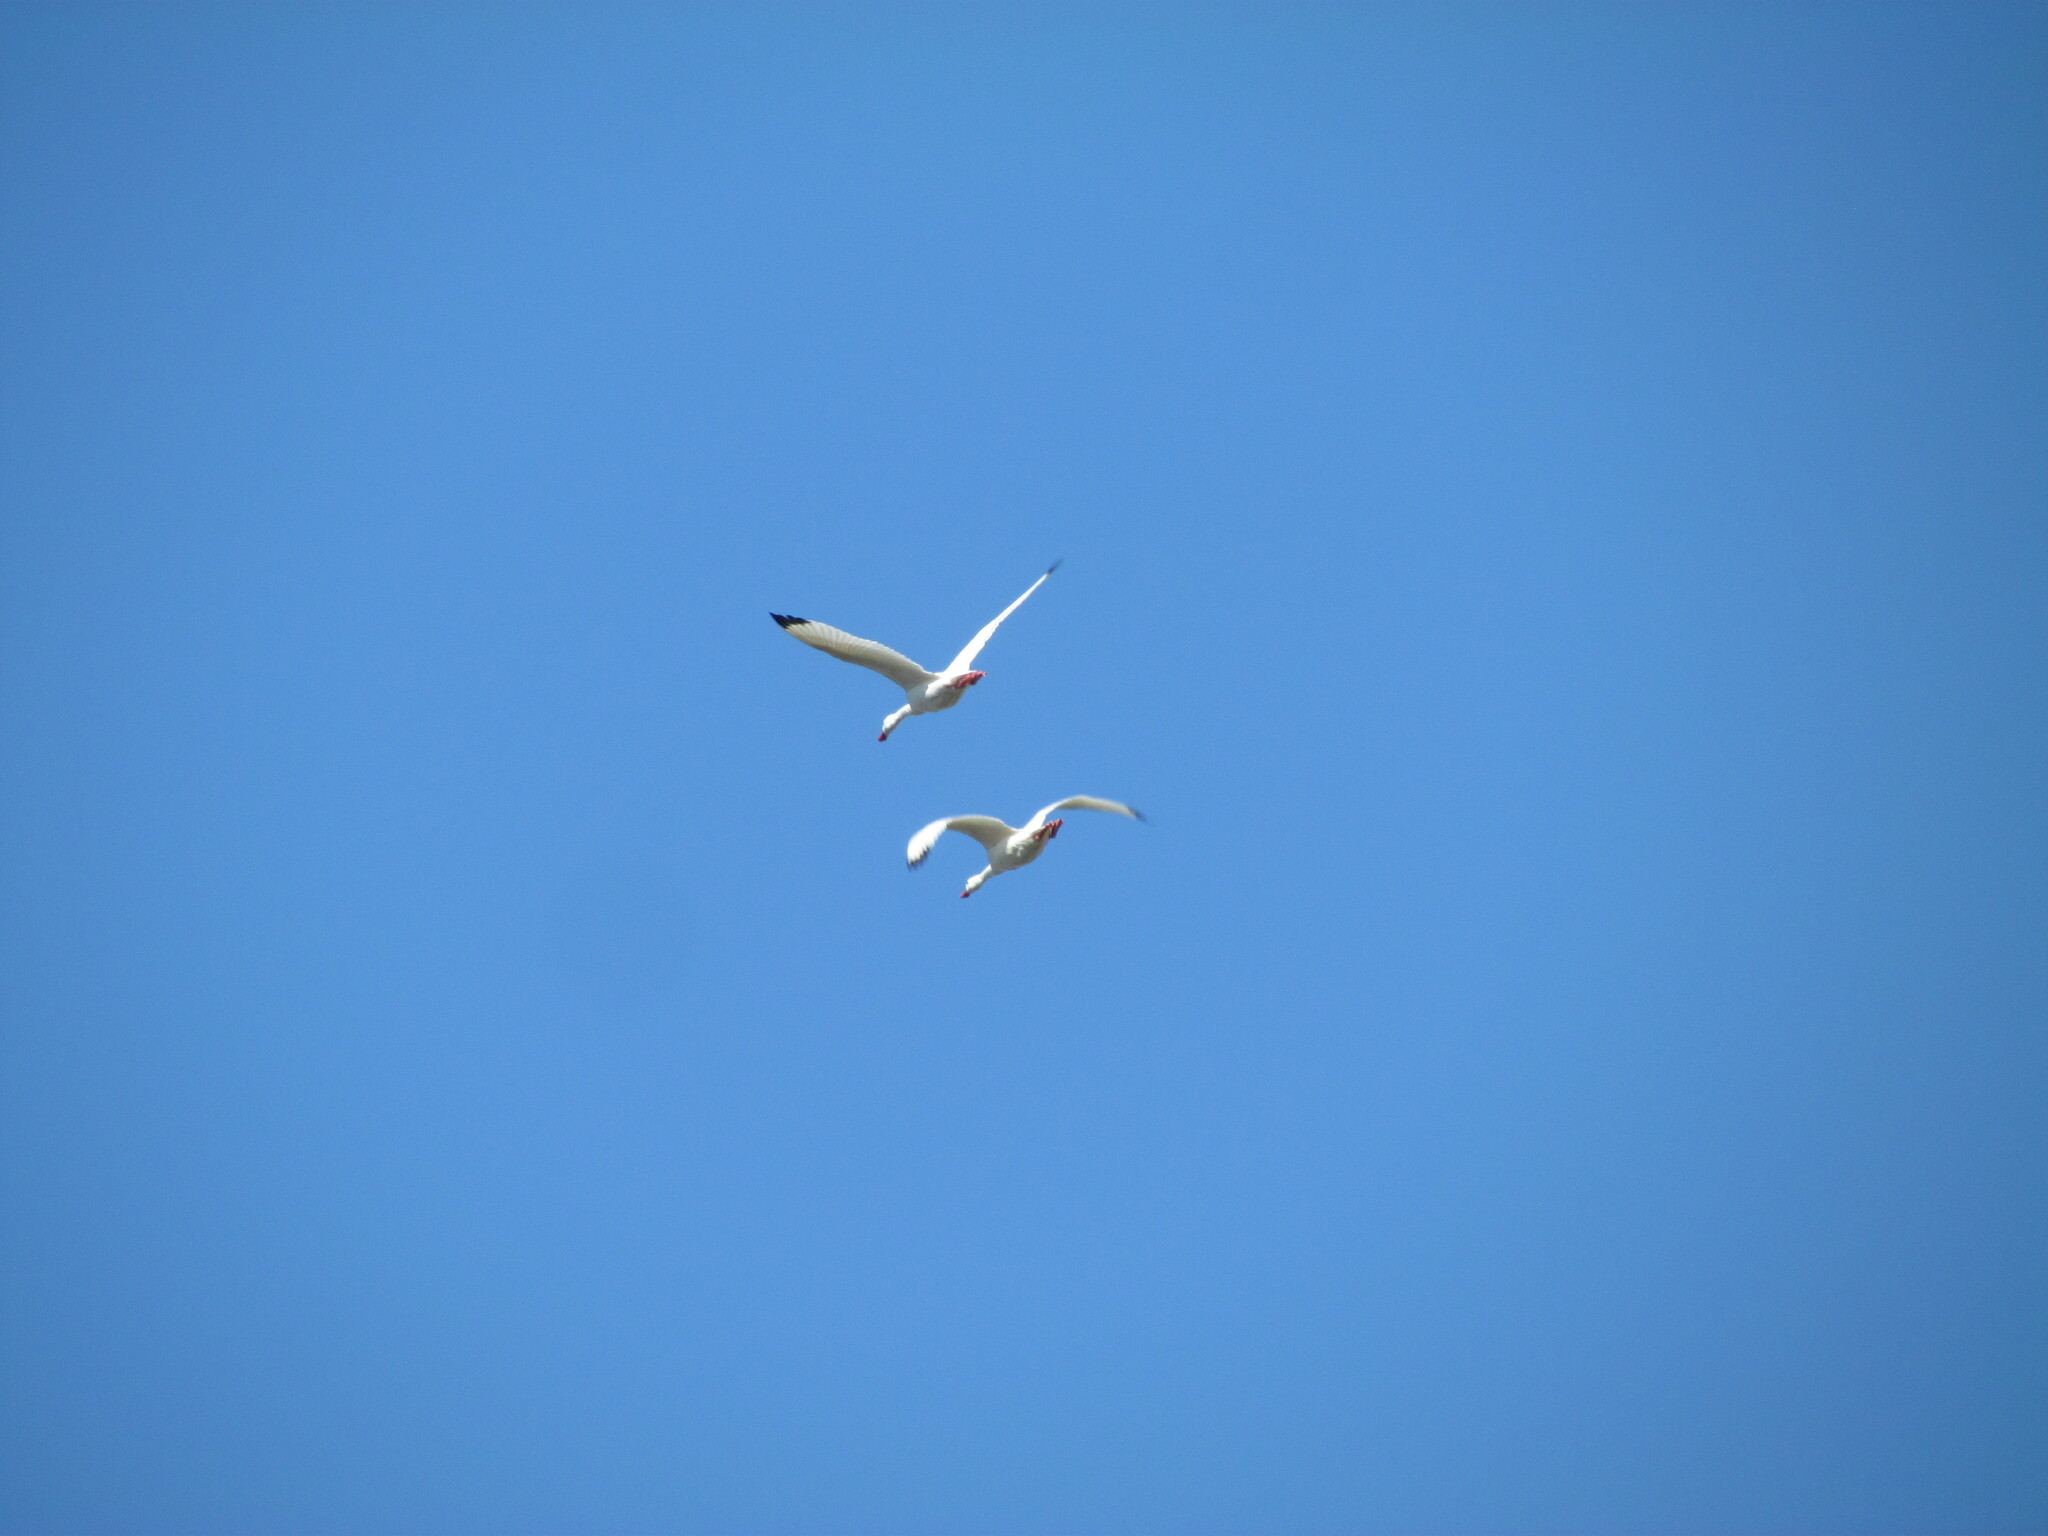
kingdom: Animalia
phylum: Chordata
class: Aves
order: Anseriformes
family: Anatidae
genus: Coscoroba
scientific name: Coscoroba coscoroba
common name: Coscoroba swan
